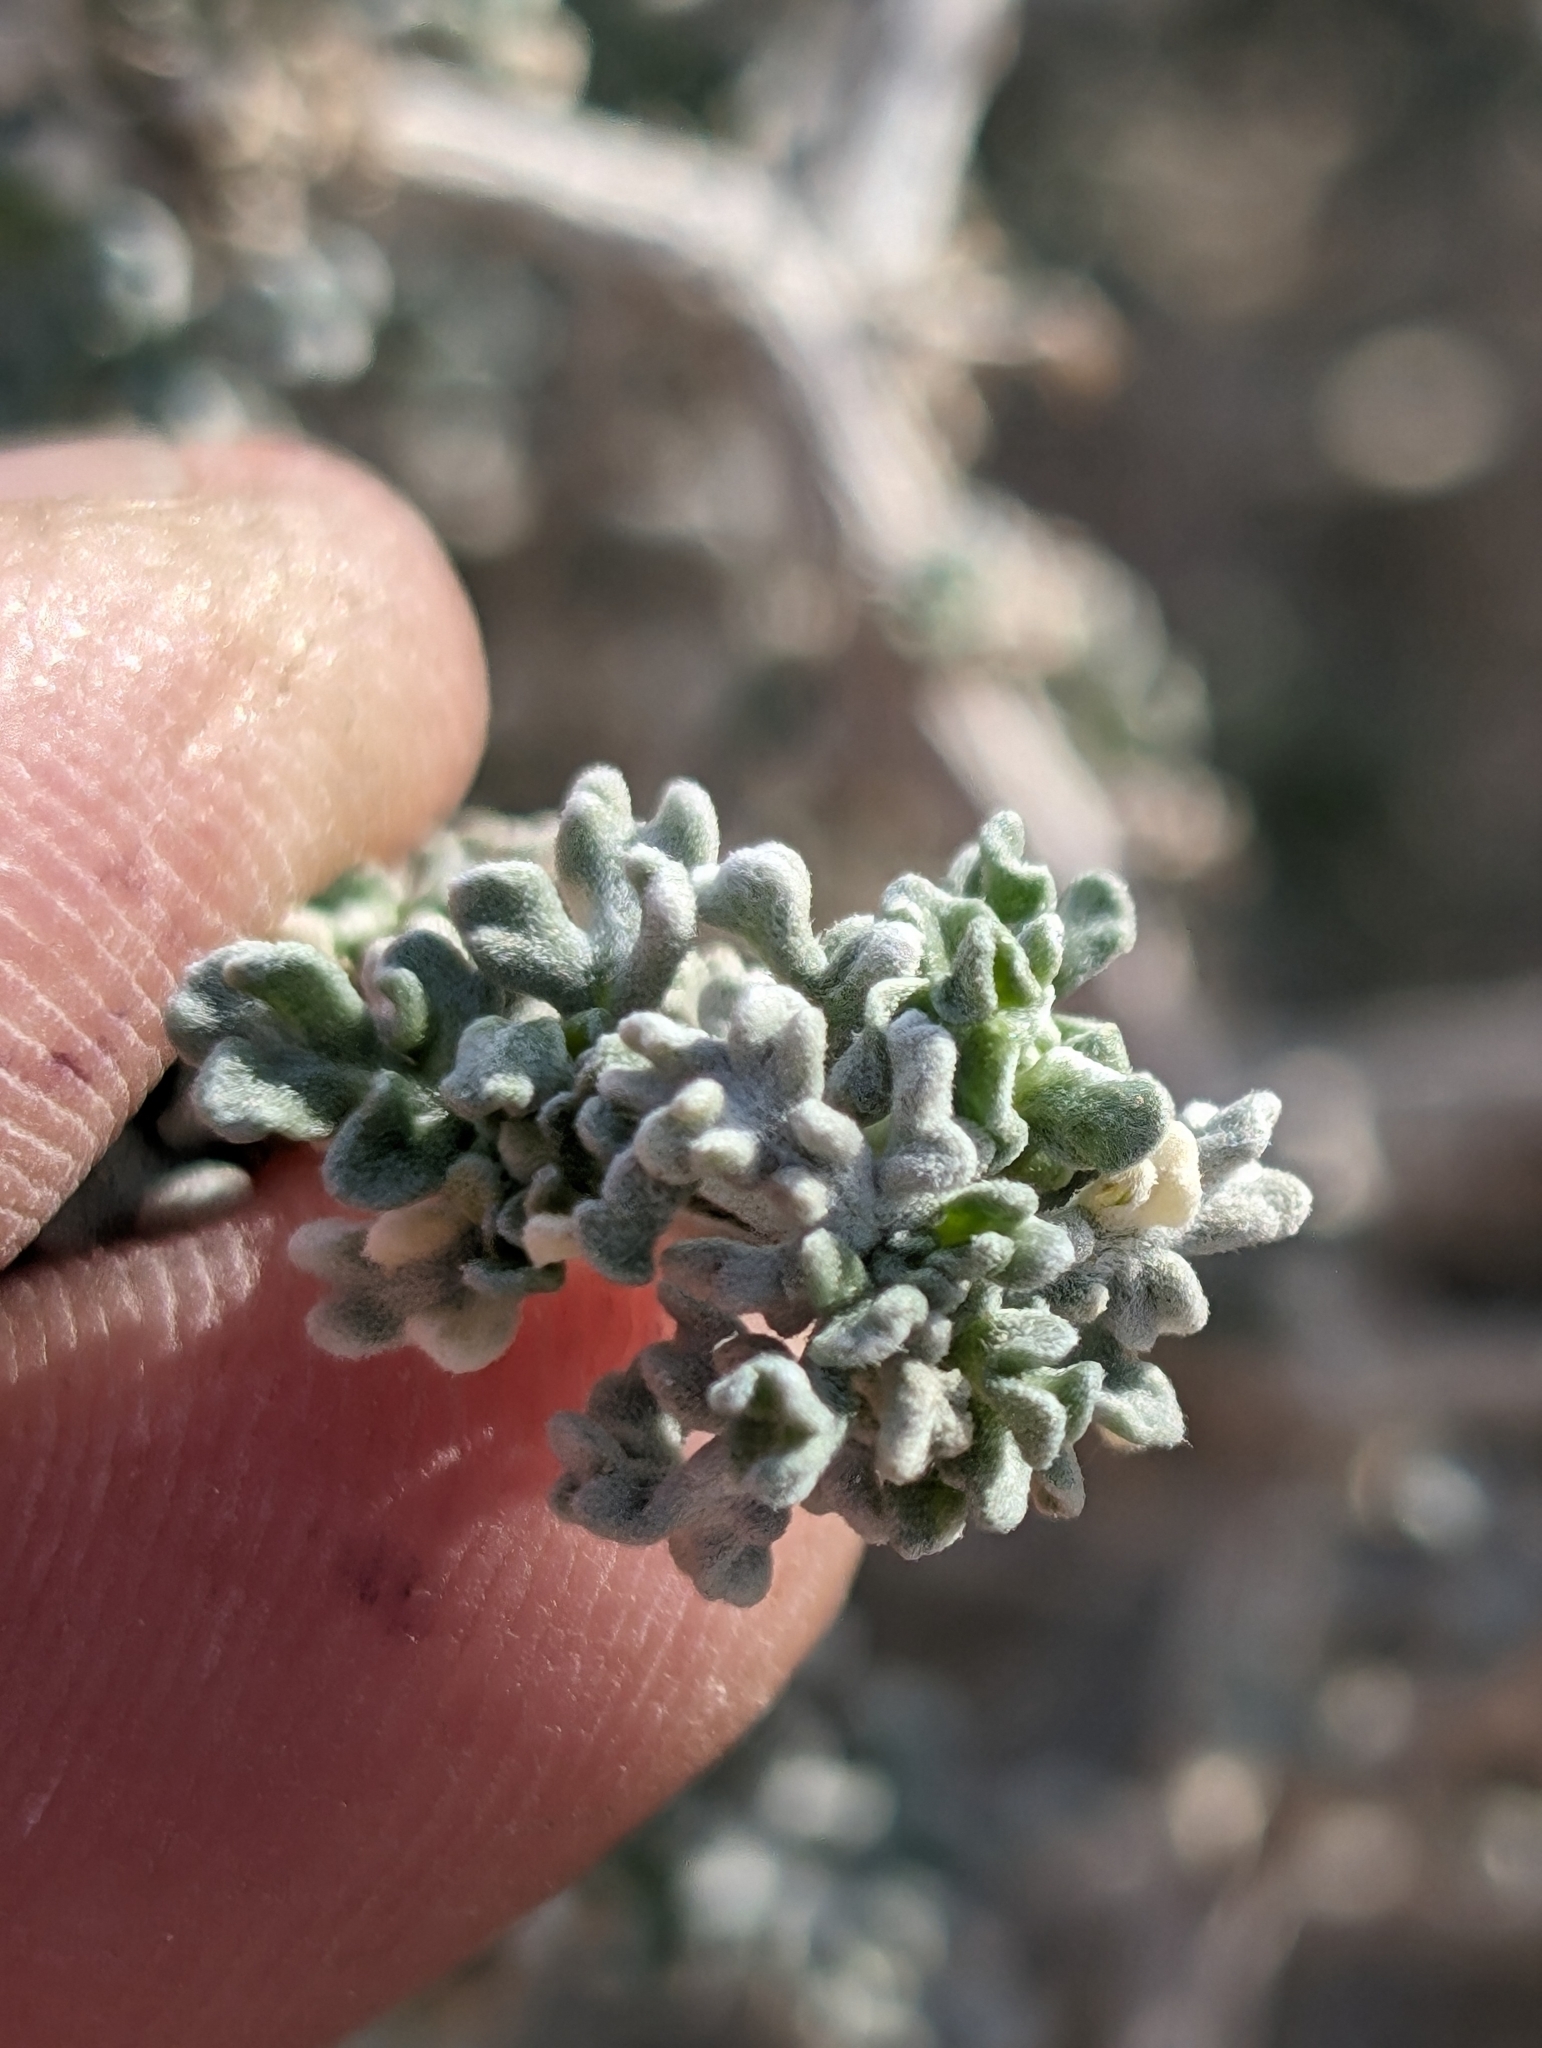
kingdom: Plantae
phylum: Tracheophyta
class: Magnoliopsida
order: Asterales
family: Asteraceae
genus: Ambrosia
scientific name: Ambrosia dumosa
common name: Bur-sage
